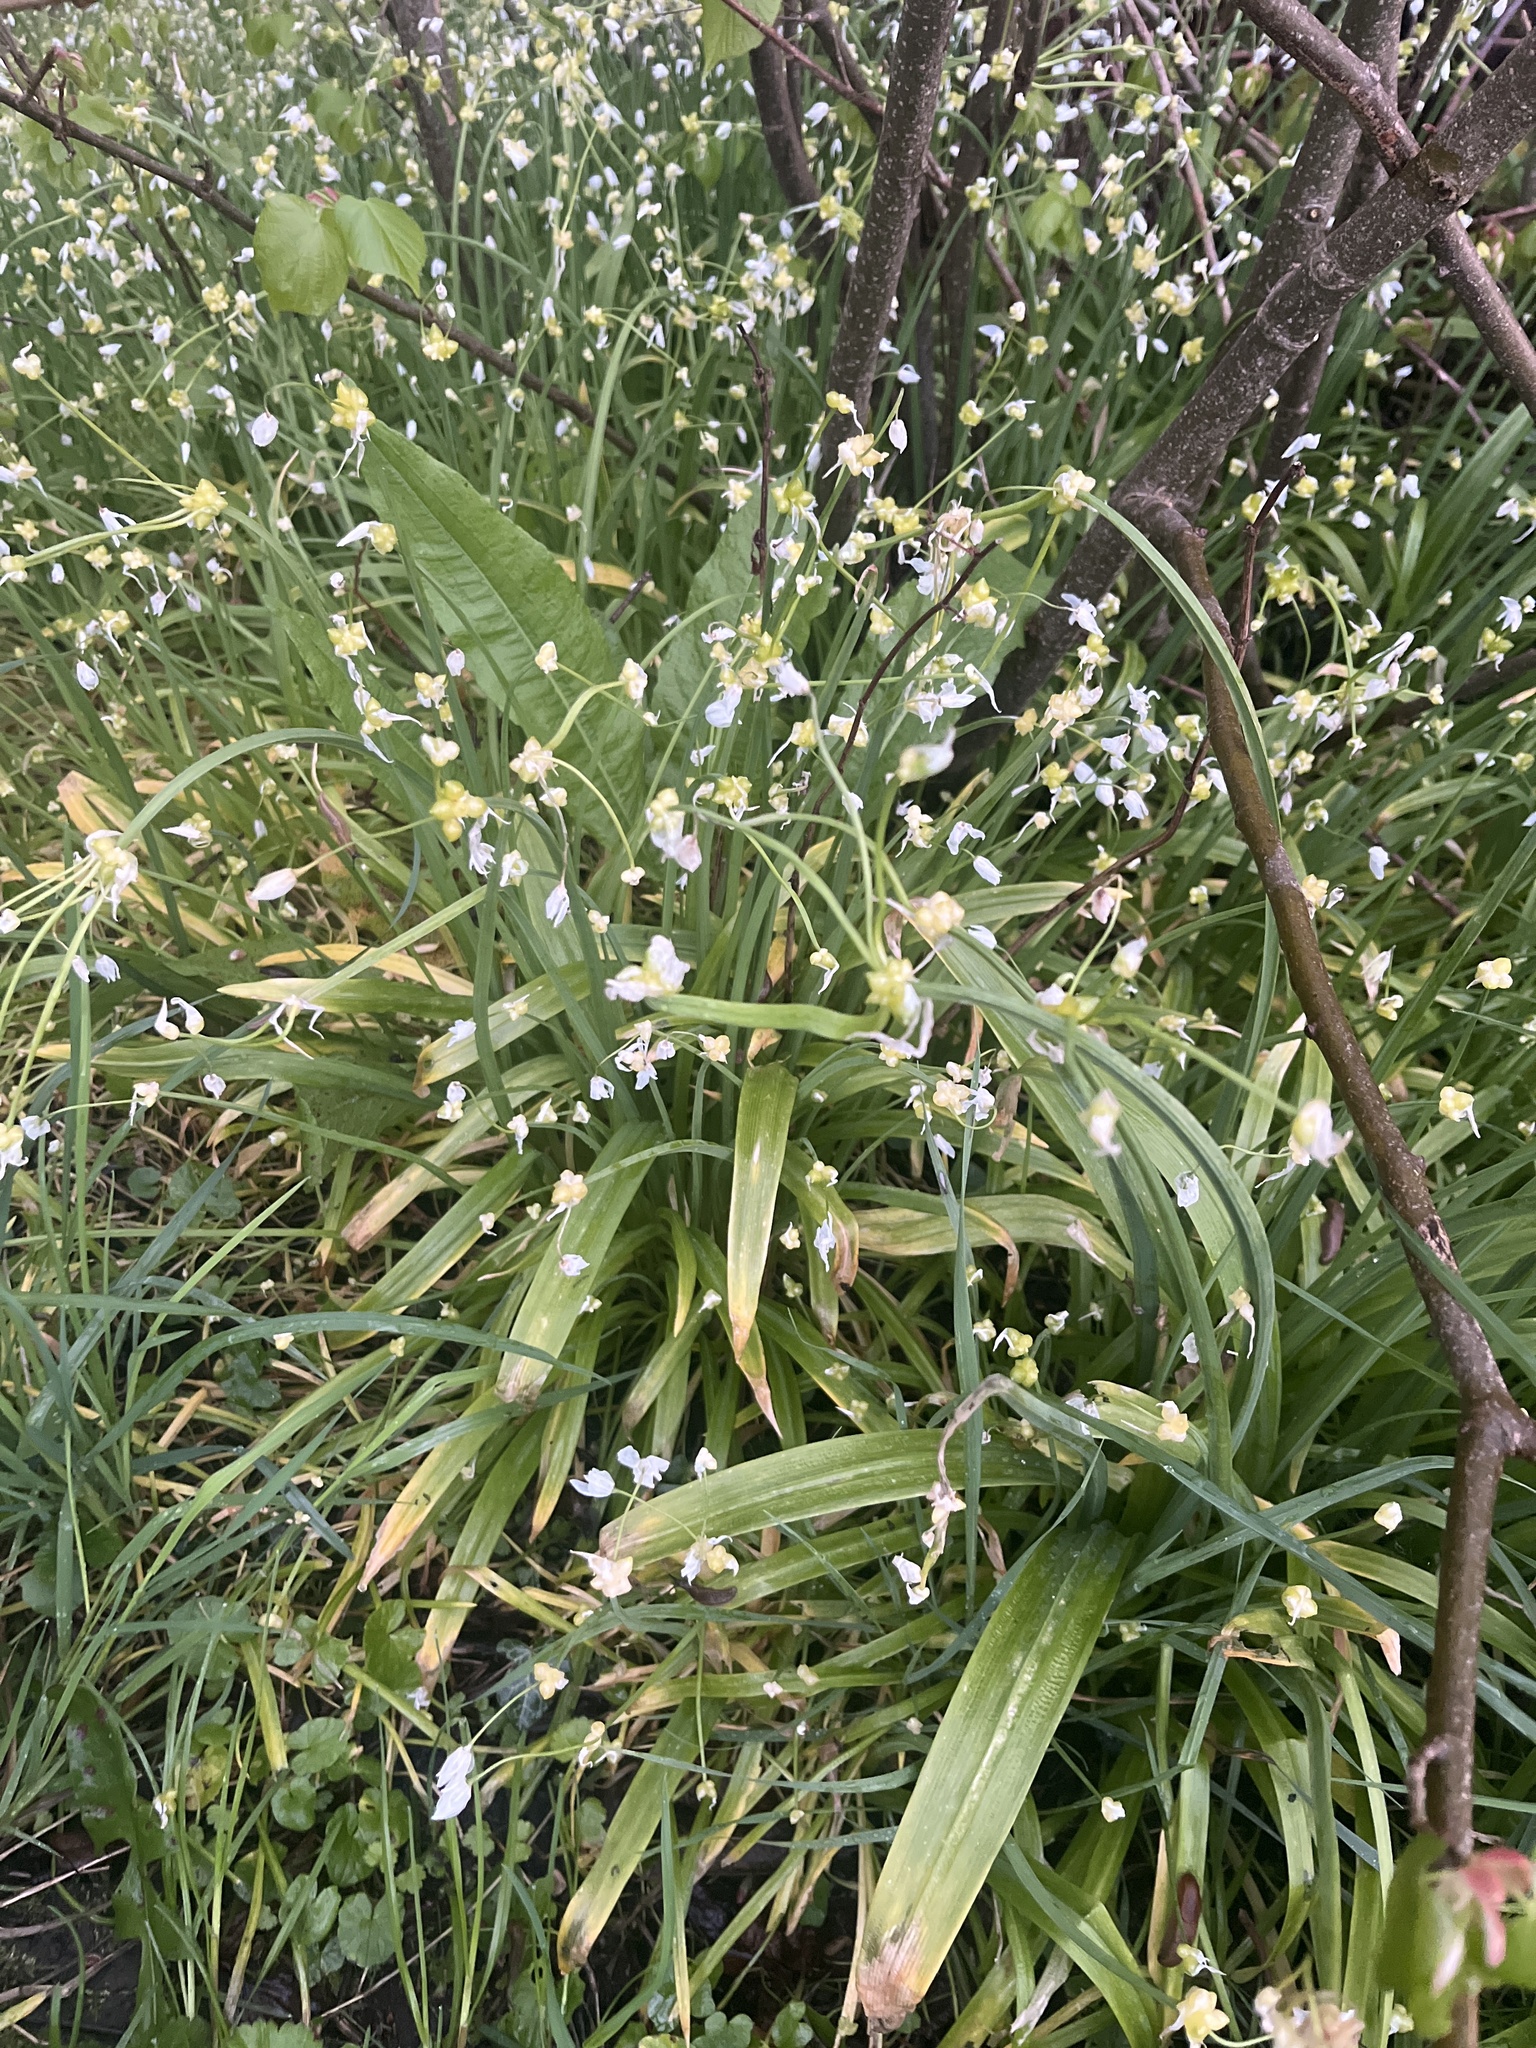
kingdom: Plantae
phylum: Tracheophyta
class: Liliopsida
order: Asparagales
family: Amaryllidaceae
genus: Allium
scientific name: Allium paradoxum
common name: Few-flowered garlic
